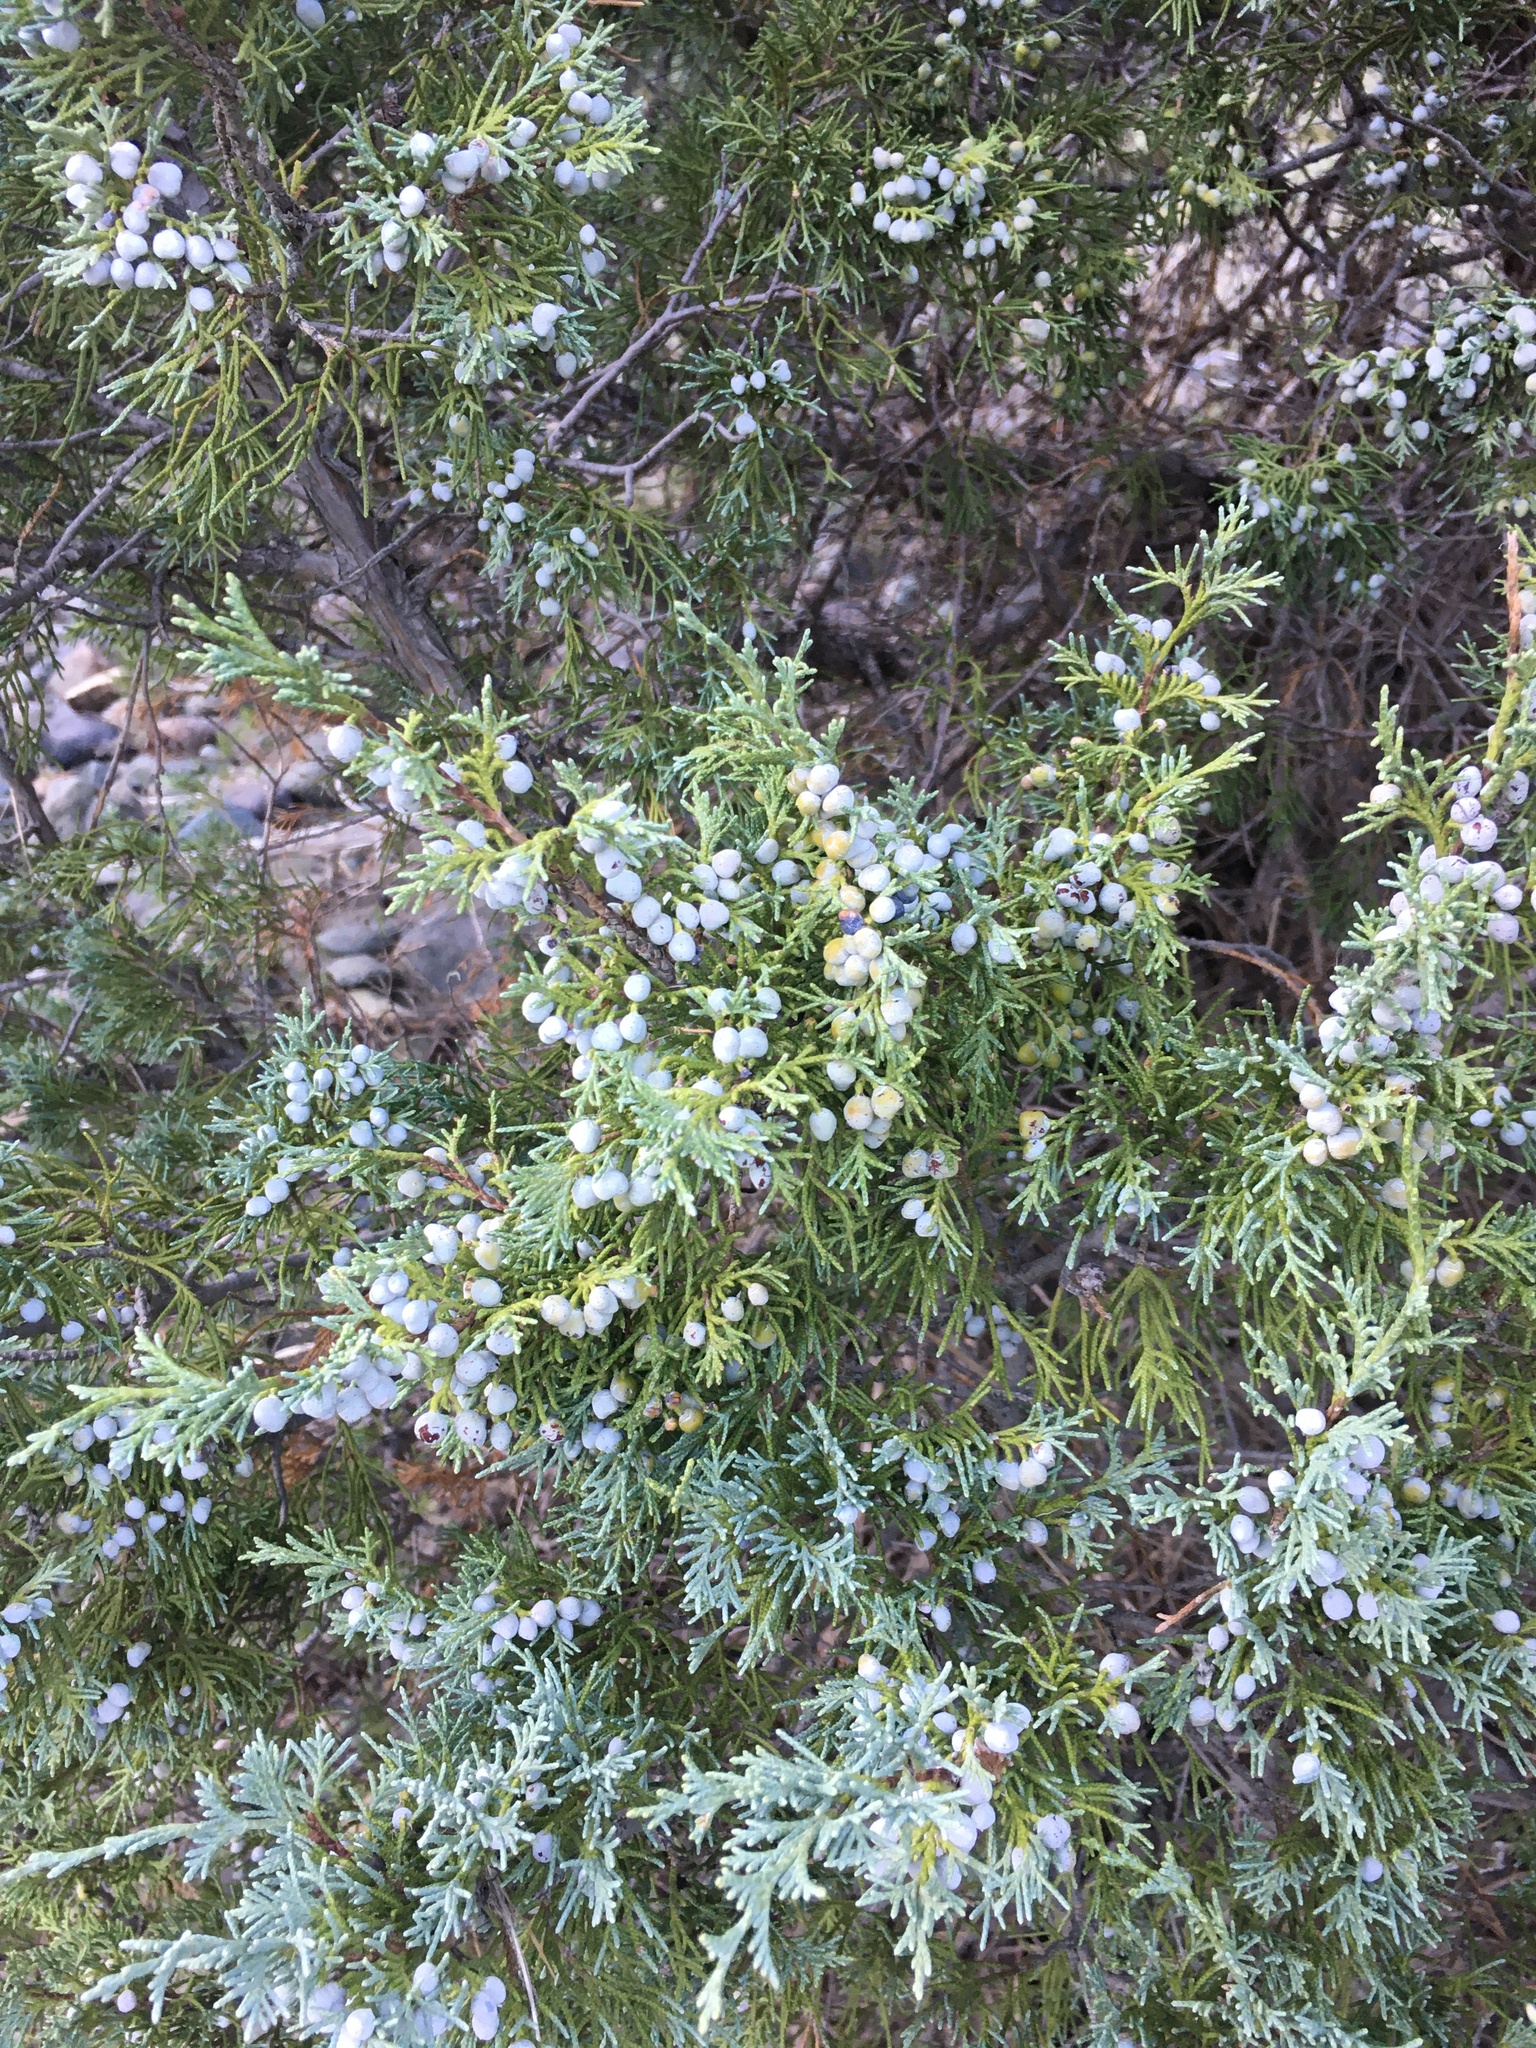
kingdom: Plantae
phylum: Tracheophyta
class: Pinopsida
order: Pinales
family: Cupressaceae
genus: Juniperus
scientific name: Juniperus scopulorum
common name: Rocky mountain juniper
